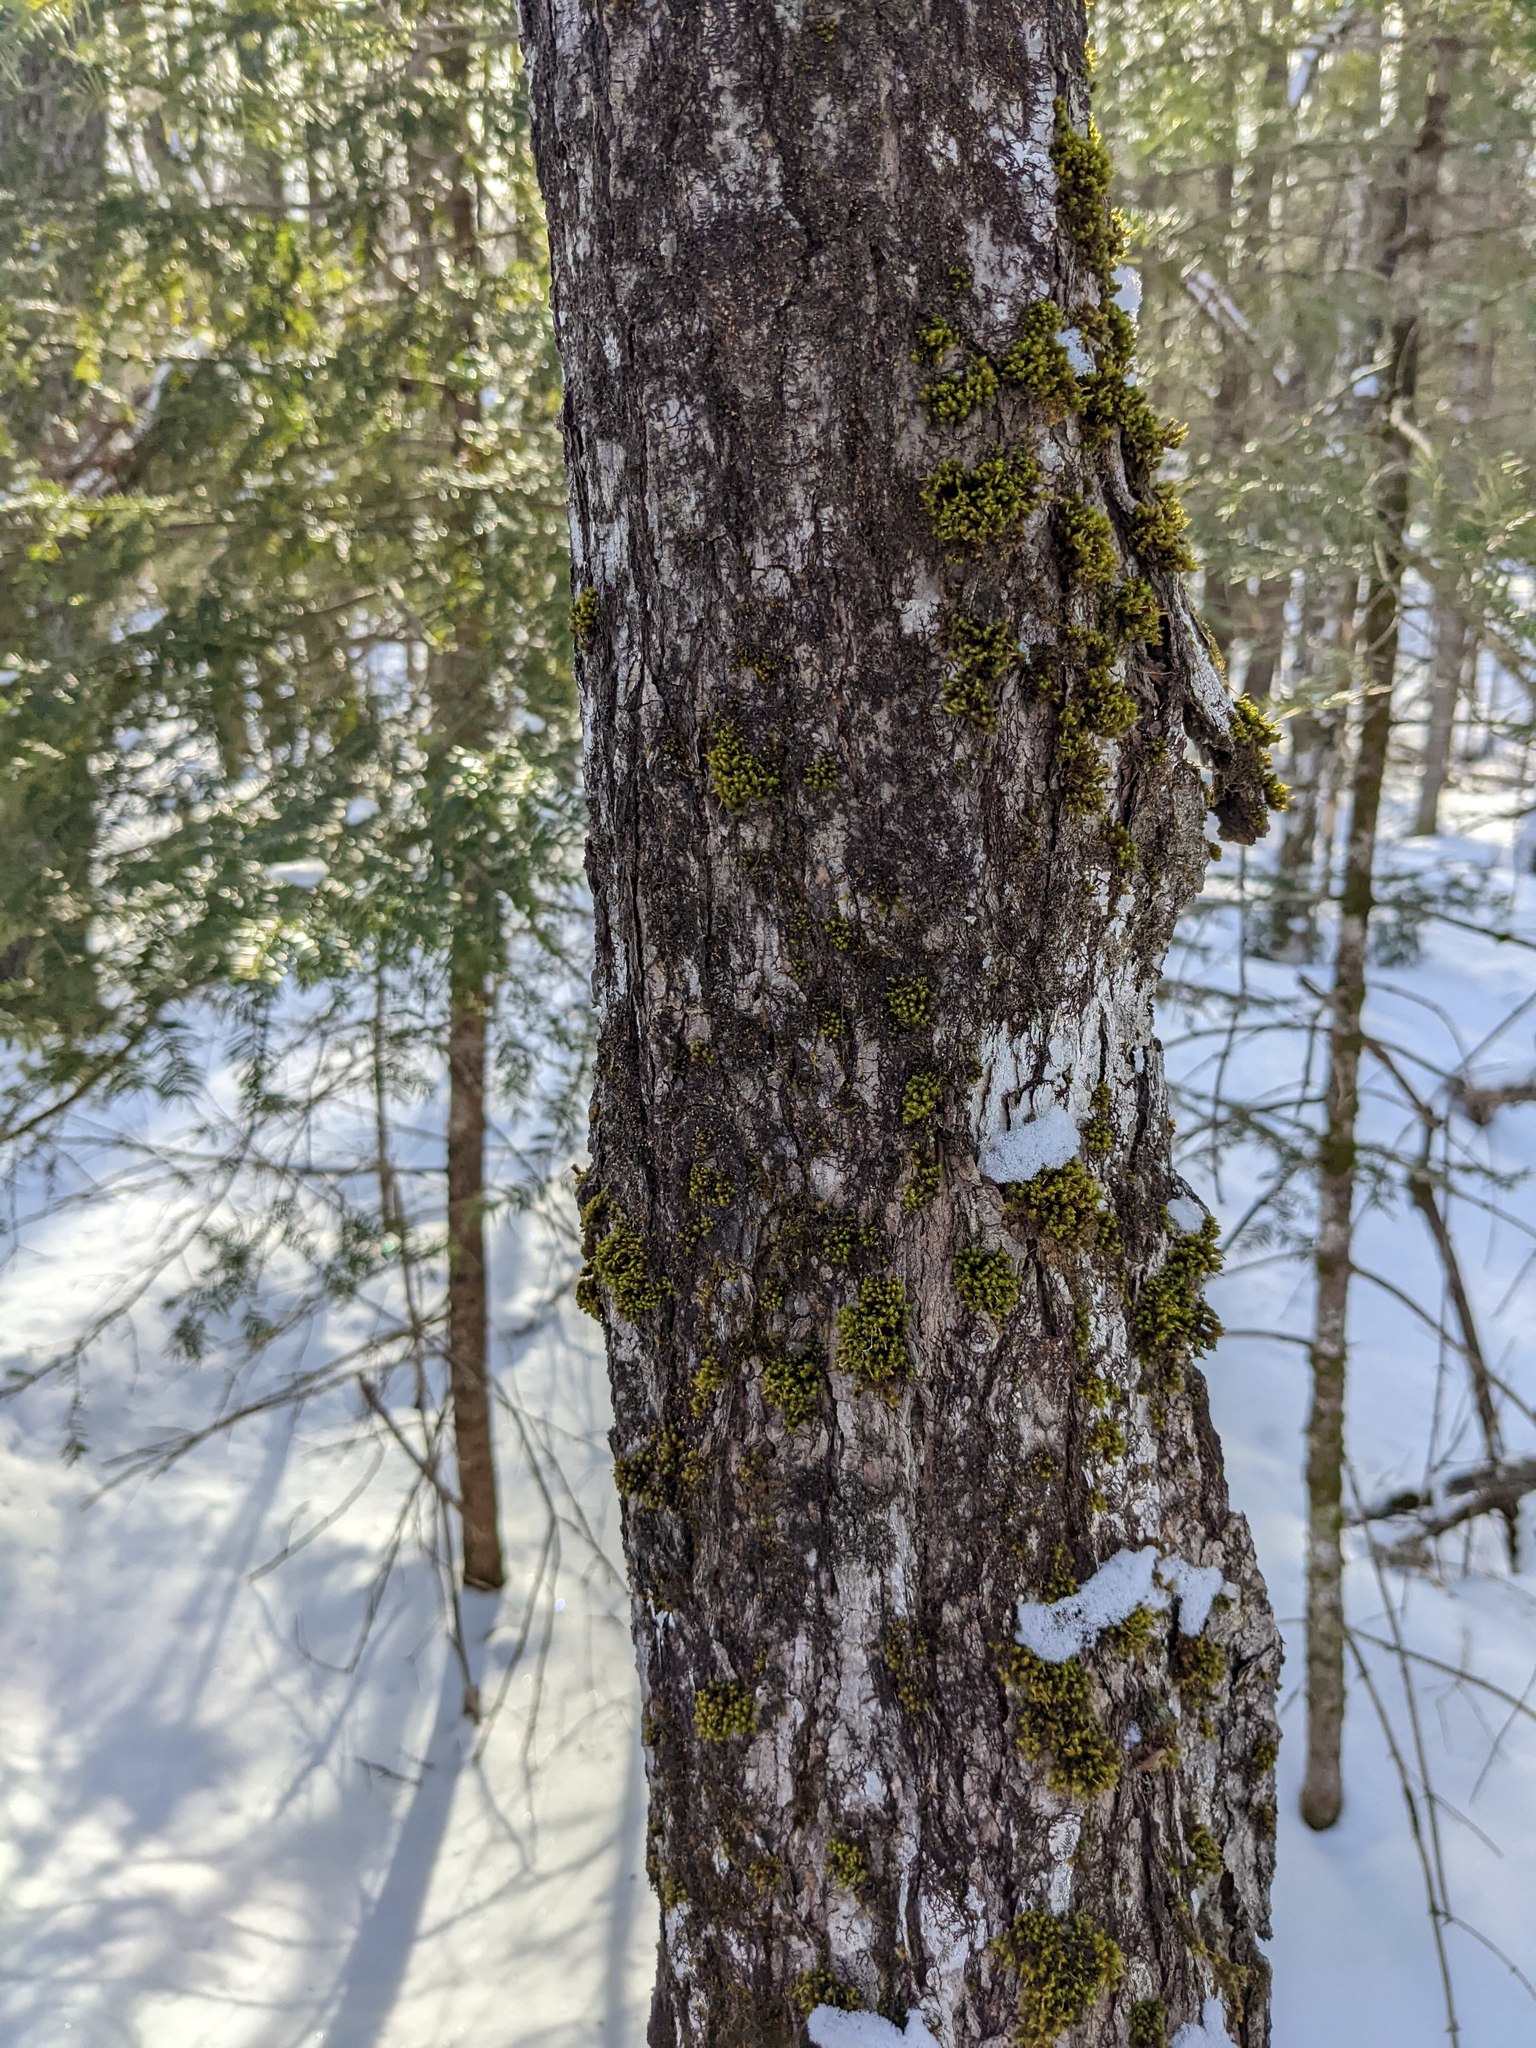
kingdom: Plantae
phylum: Bryophyta
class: Bryopsida
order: Orthotrichales
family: Orthotrichaceae
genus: Ulota
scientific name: Ulota crispa
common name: Crisped pincushion moss
